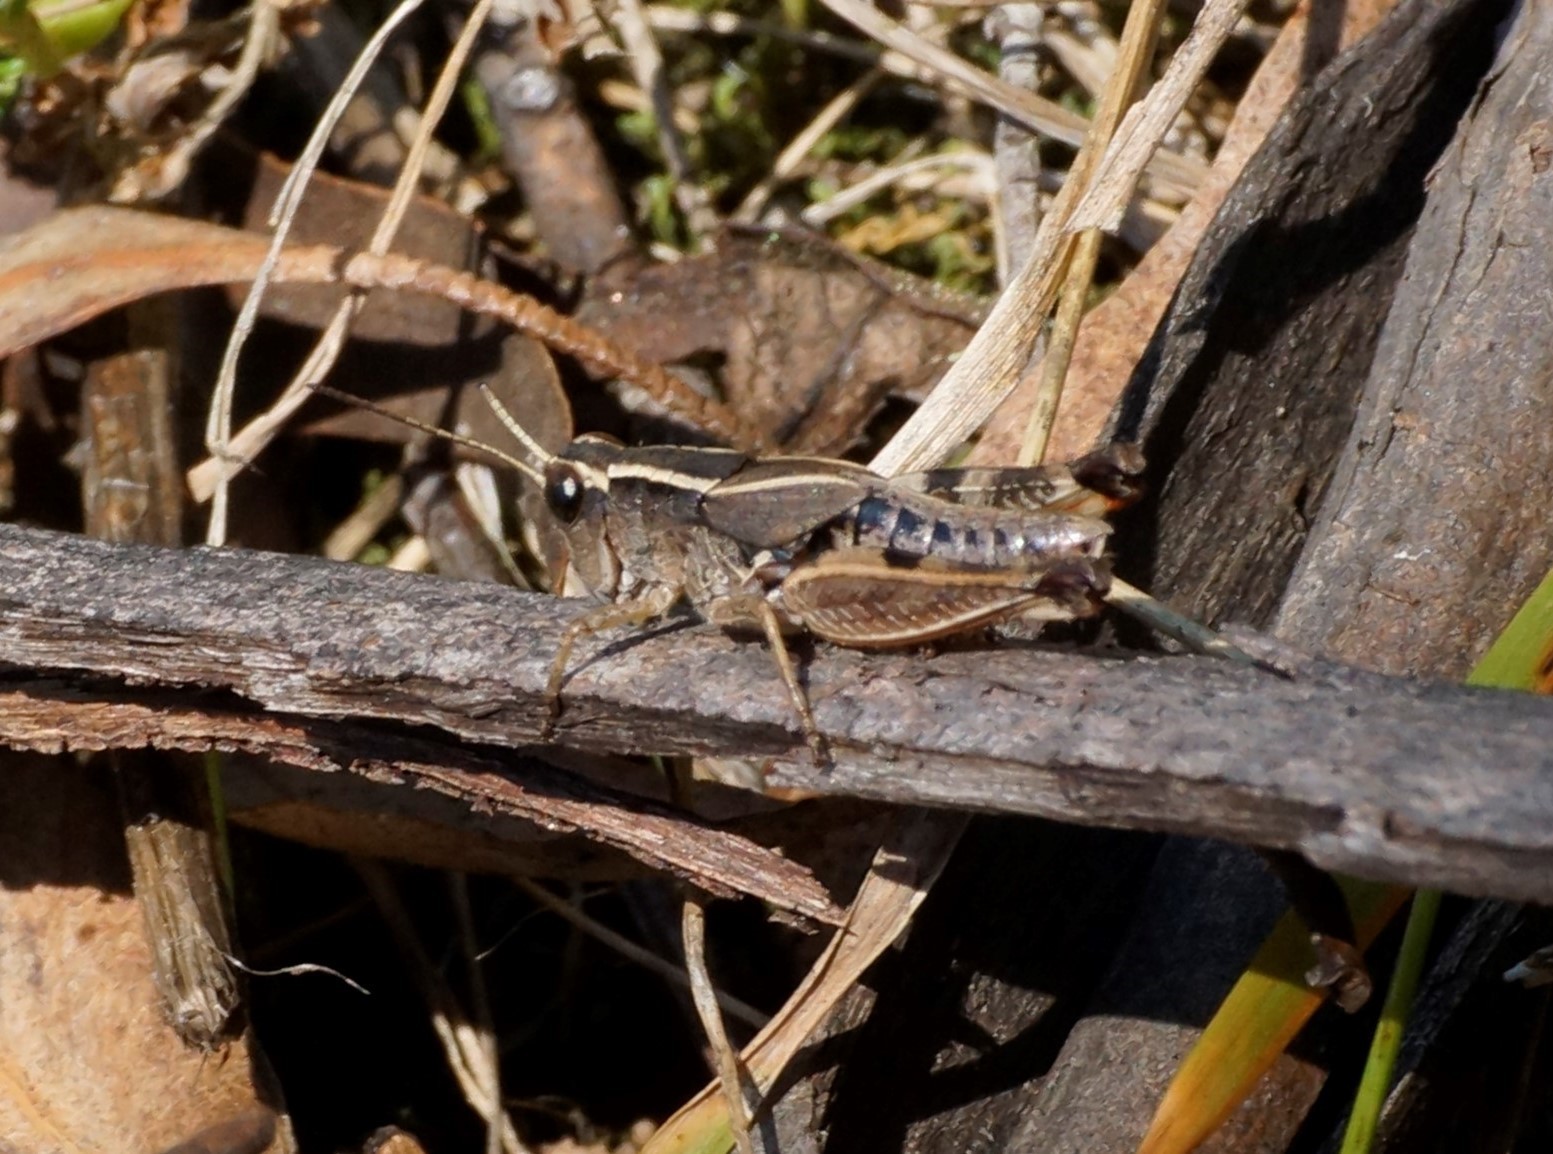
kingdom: Animalia
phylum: Arthropoda
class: Insecta
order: Orthoptera
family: Acrididae
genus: Phaulacridium
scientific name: Phaulacridium vittatum
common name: Wingless grasshopper
